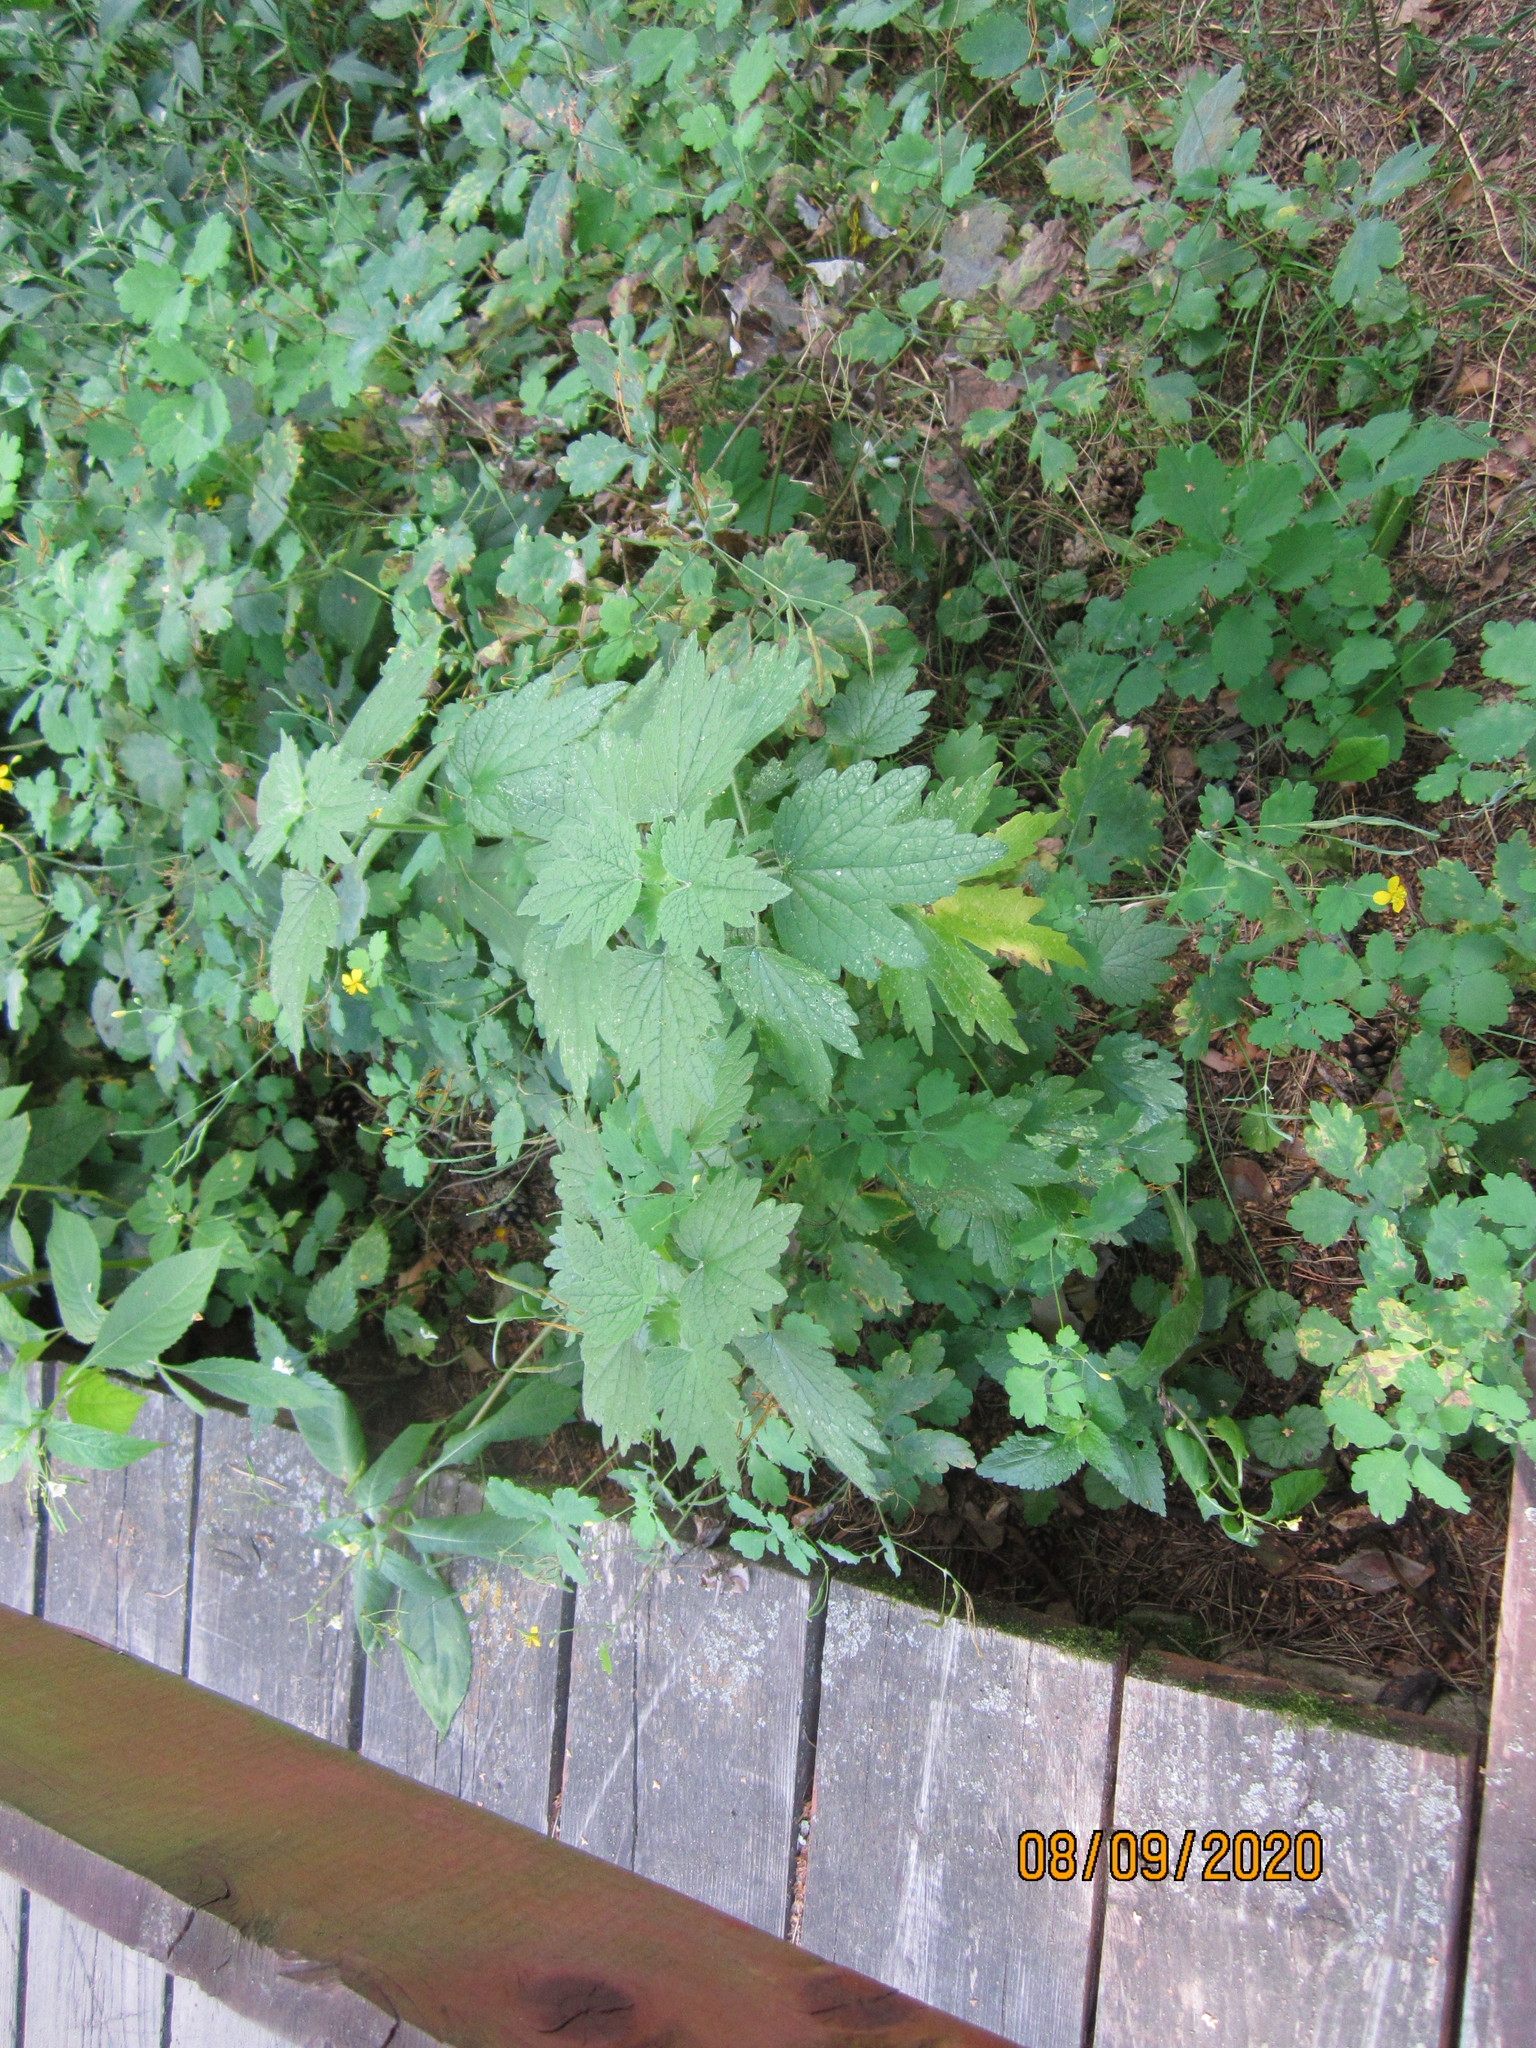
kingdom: Plantae
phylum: Tracheophyta
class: Magnoliopsida
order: Lamiales
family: Lamiaceae
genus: Leonurus
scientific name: Leonurus quinquelobatus
